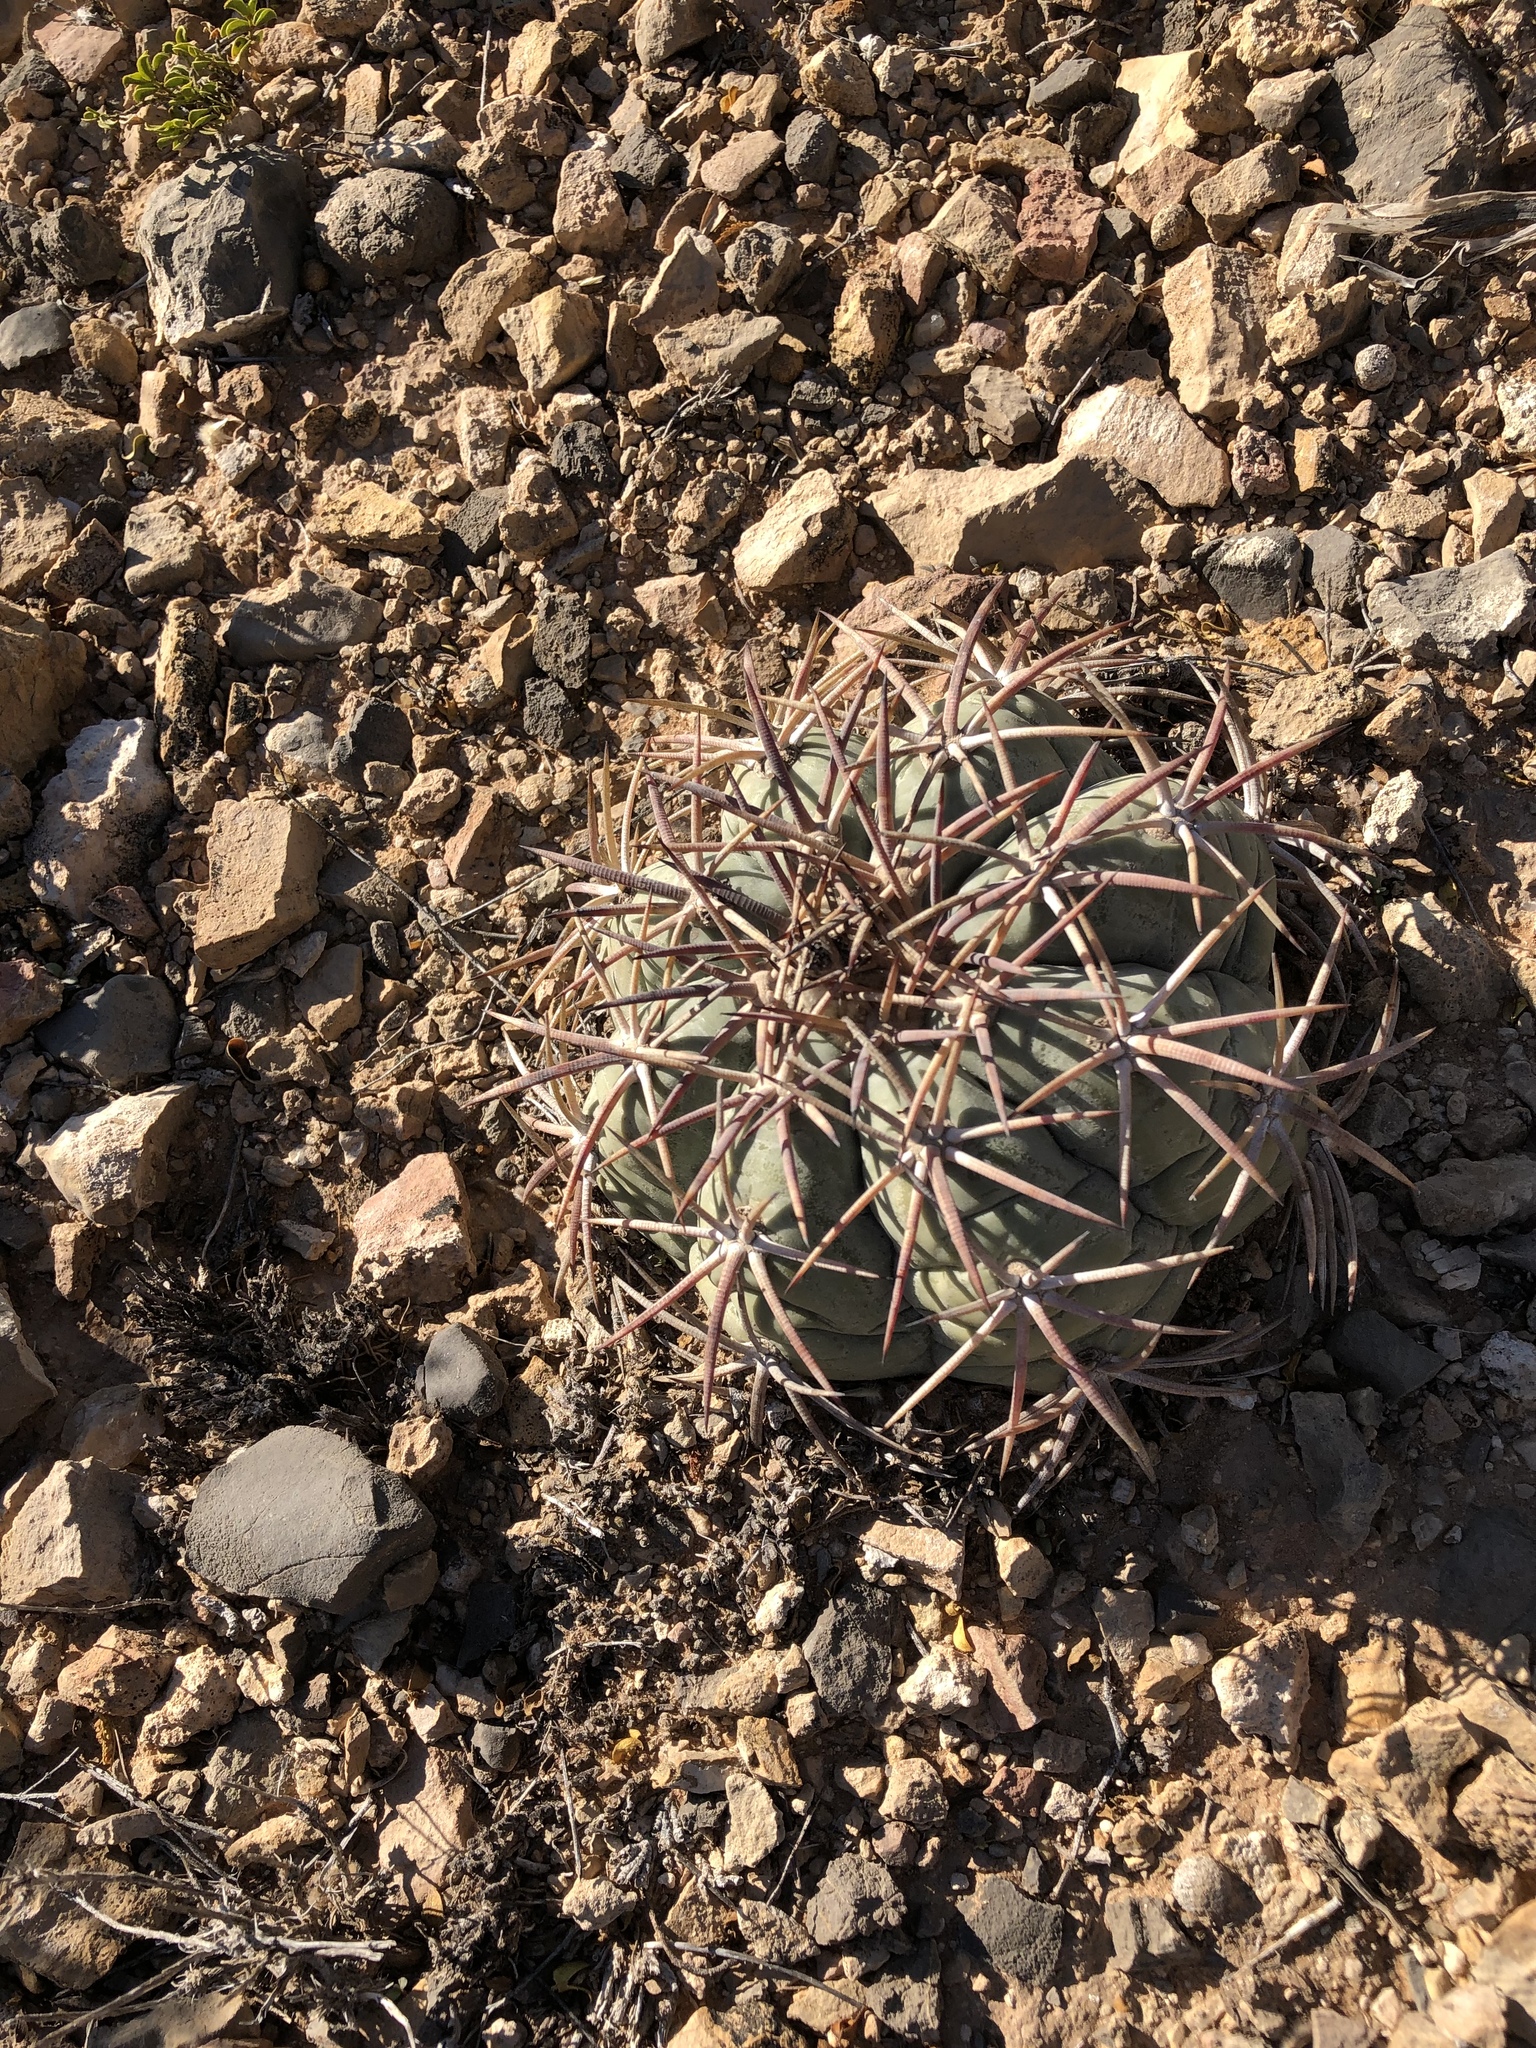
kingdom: Plantae
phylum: Tracheophyta
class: Magnoliopsida
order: Caryophyllales
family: Cactaceae
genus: Echinocactus
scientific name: Echinocactus horizonthalonius
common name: Devilshead
